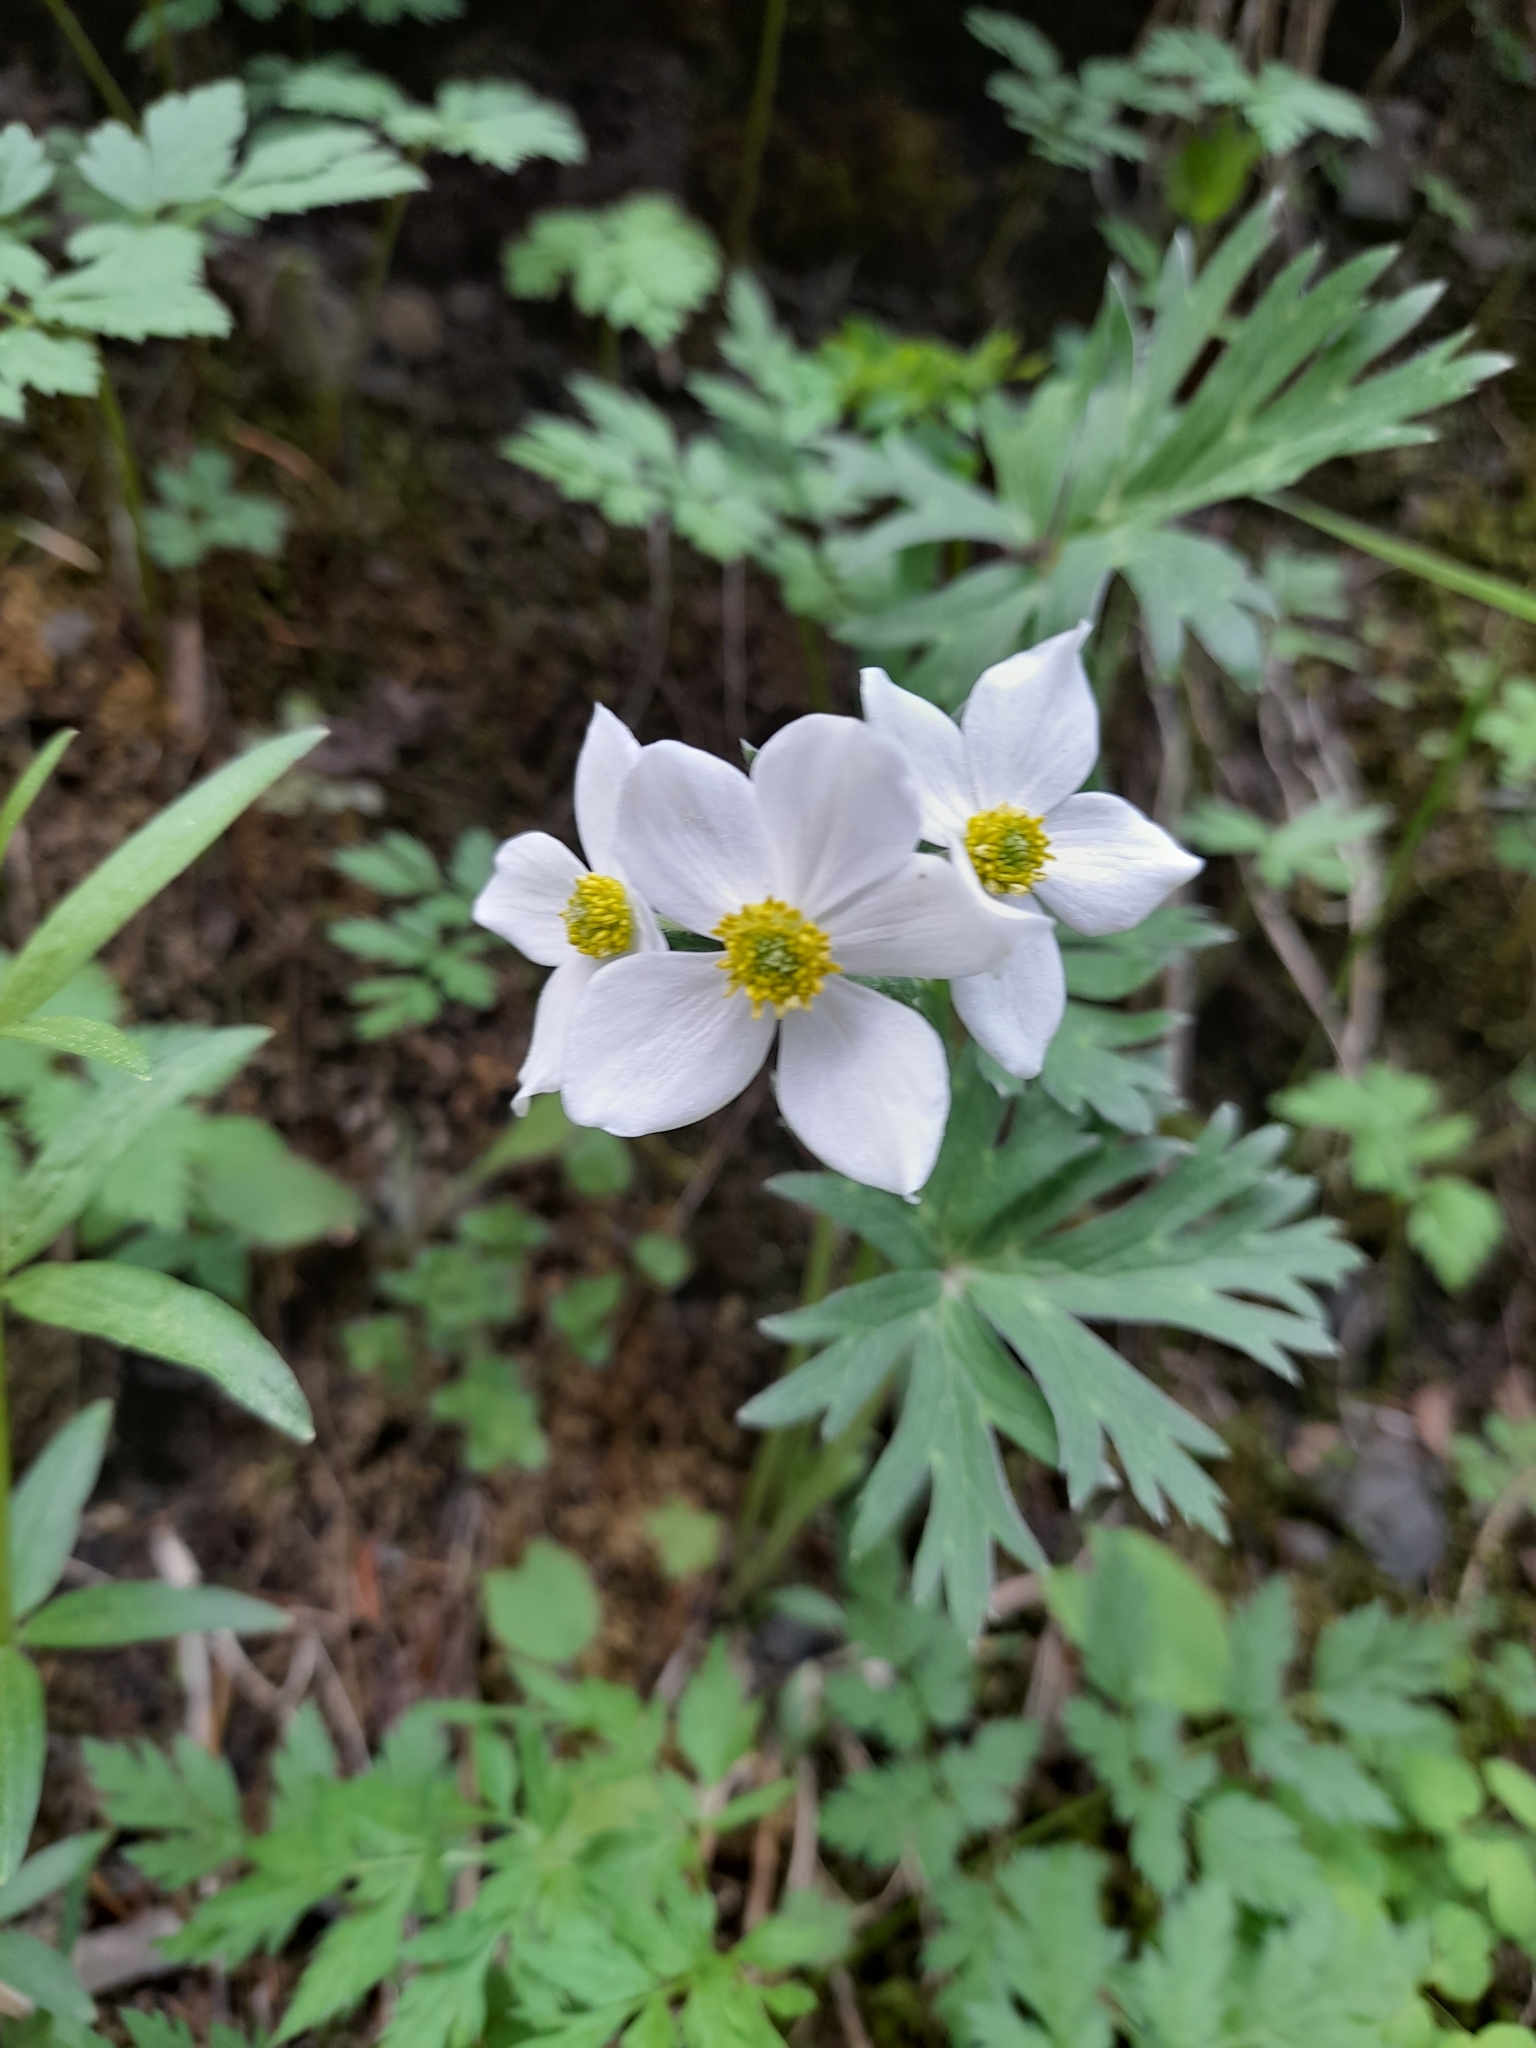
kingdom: Plantae
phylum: Tracheophyta
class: Magnoliopsida
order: Ranunculales
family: Ranunculaceae
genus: Anemonastrum
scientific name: Anemonastrum protractum
